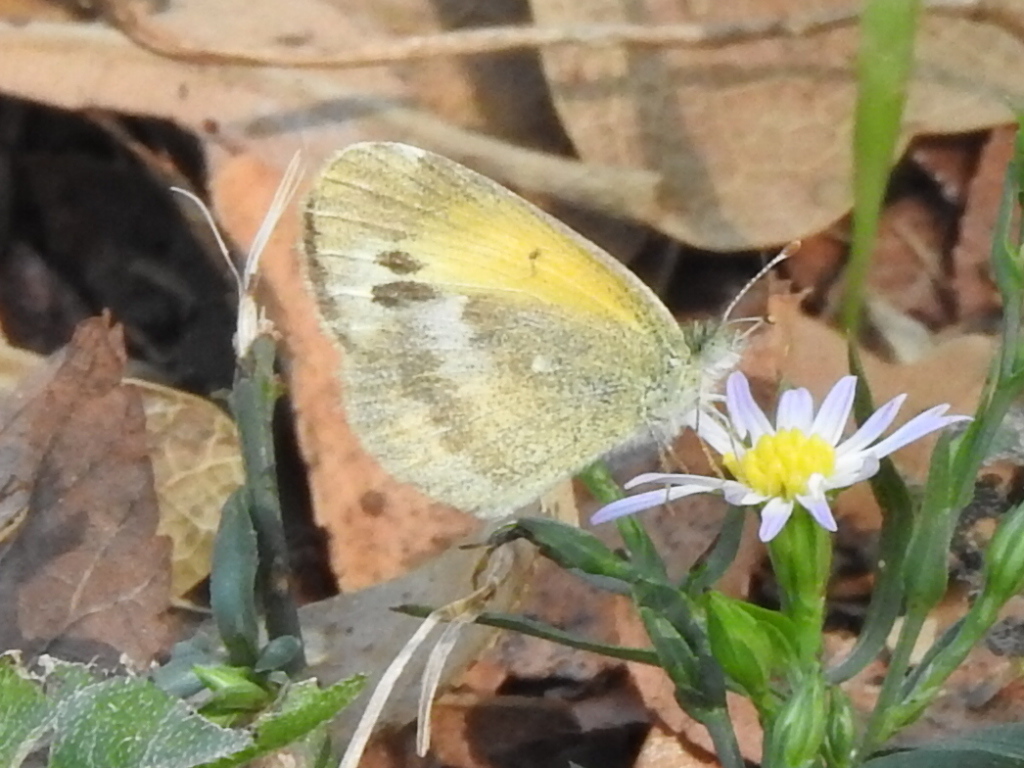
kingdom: Animalia
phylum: Arthropoda
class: Insecta
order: Lepidoptera
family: Pieridae
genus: Nathalis
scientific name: Nathalis iole
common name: Dainty sulphur
